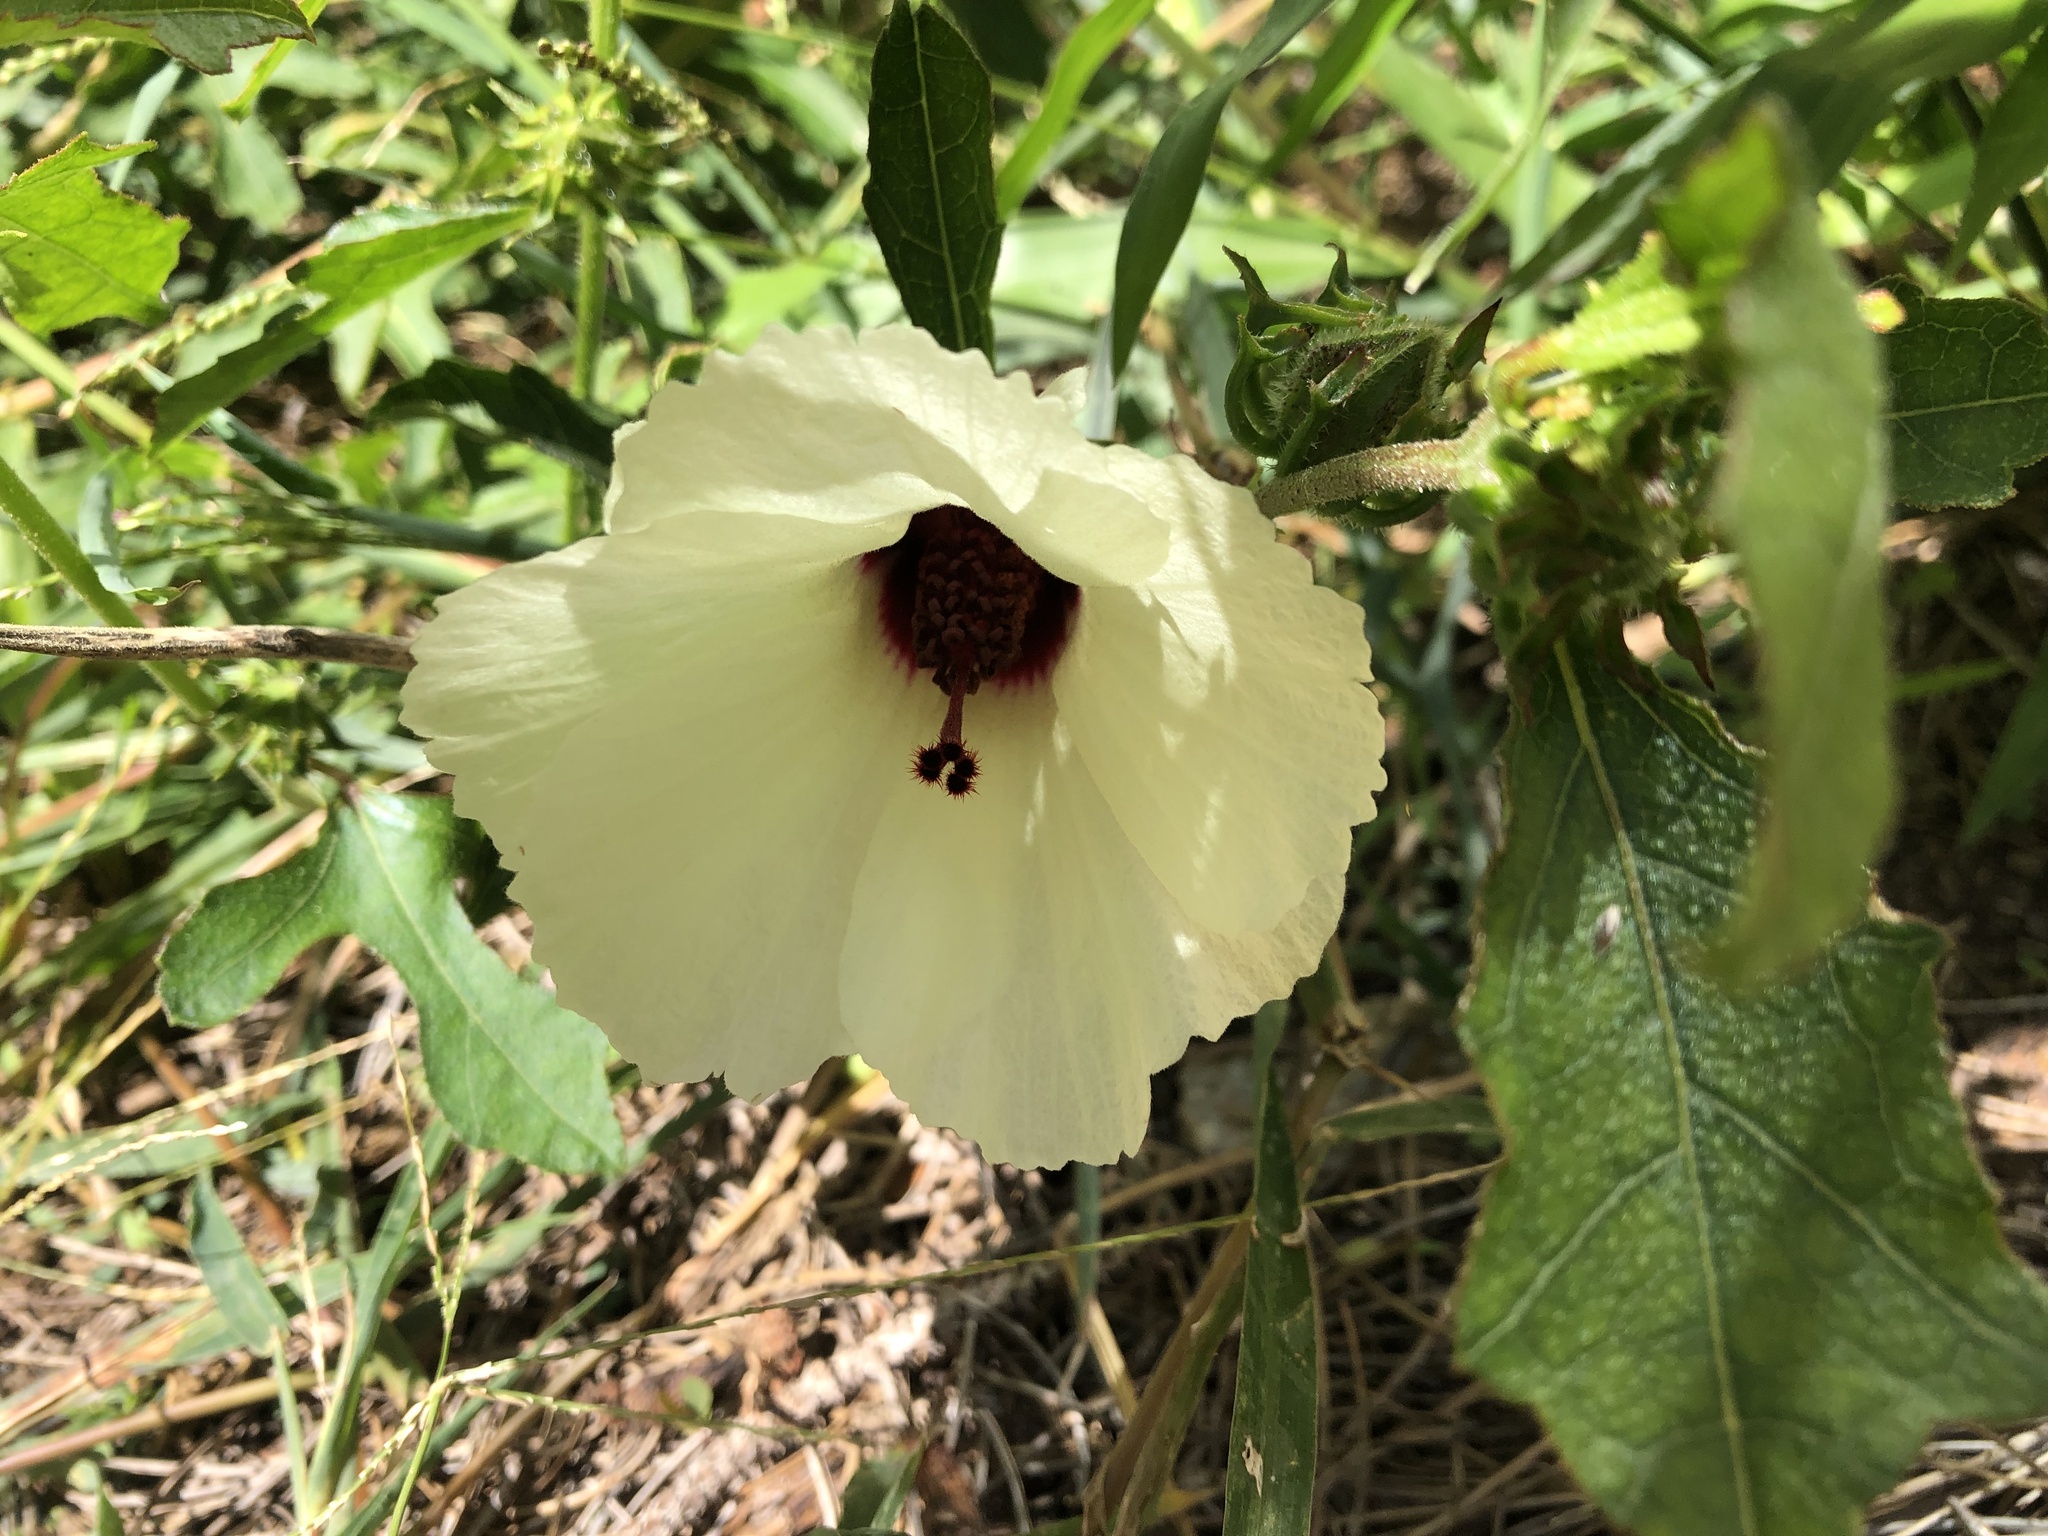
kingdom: Plantae
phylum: Tracheophyta
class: Magnoliopsida
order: Malvales
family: Malvaceae
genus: Hibiscus
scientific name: Hibiscus aculeatus
